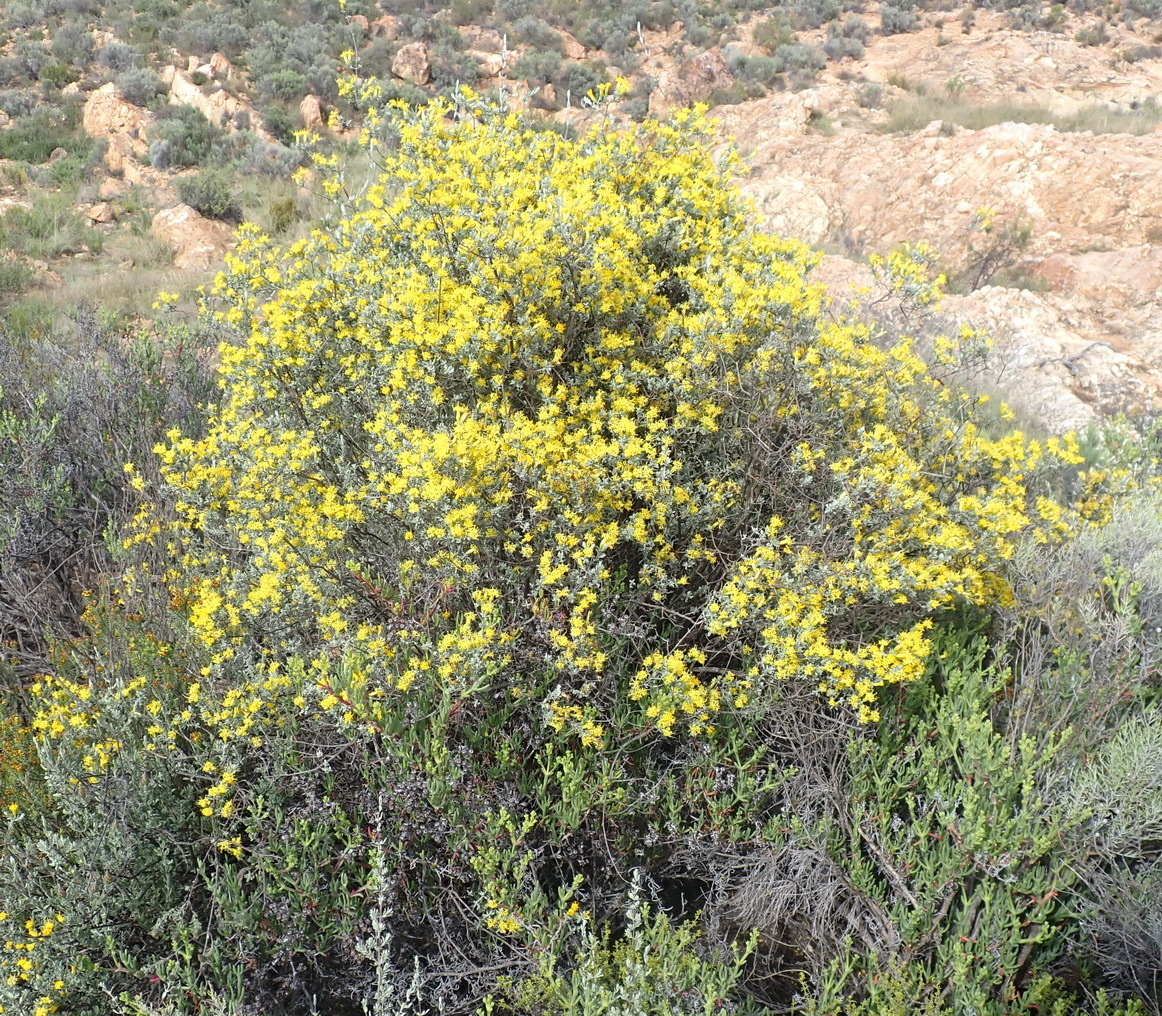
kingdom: Plantae
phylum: Tracheophyta
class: Magnoliopsida
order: Asterales
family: Asteraceae
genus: Pteronia
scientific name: Pteronia incana
